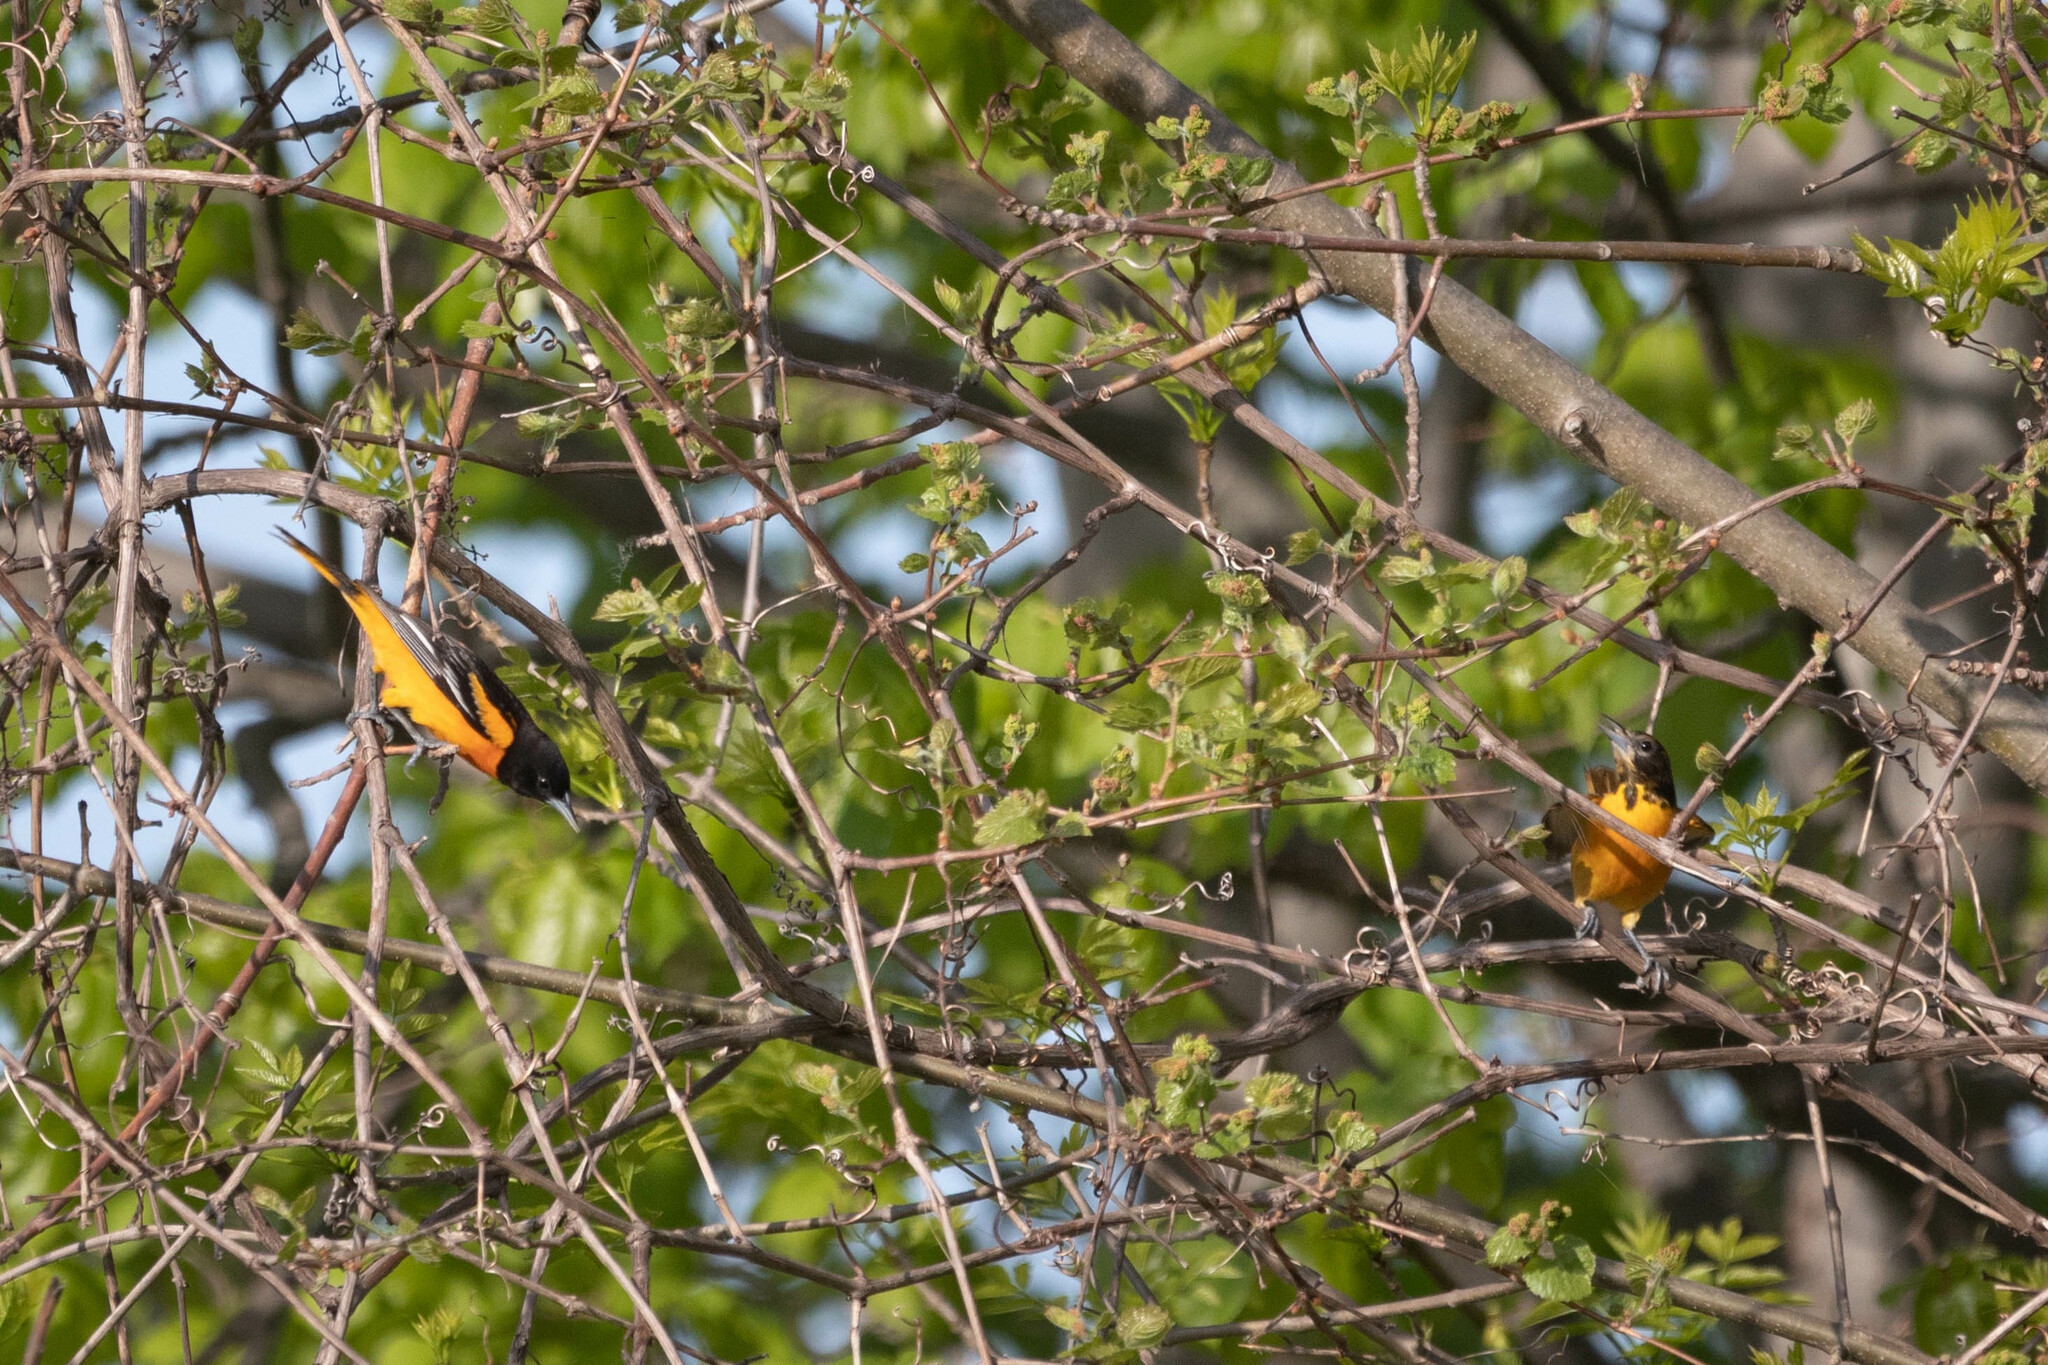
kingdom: Animalia
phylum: Chordata
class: Aves
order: Passeriformes
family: Icteridae
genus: Icterus
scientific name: Icterus galbula
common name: Baltimore oriole
